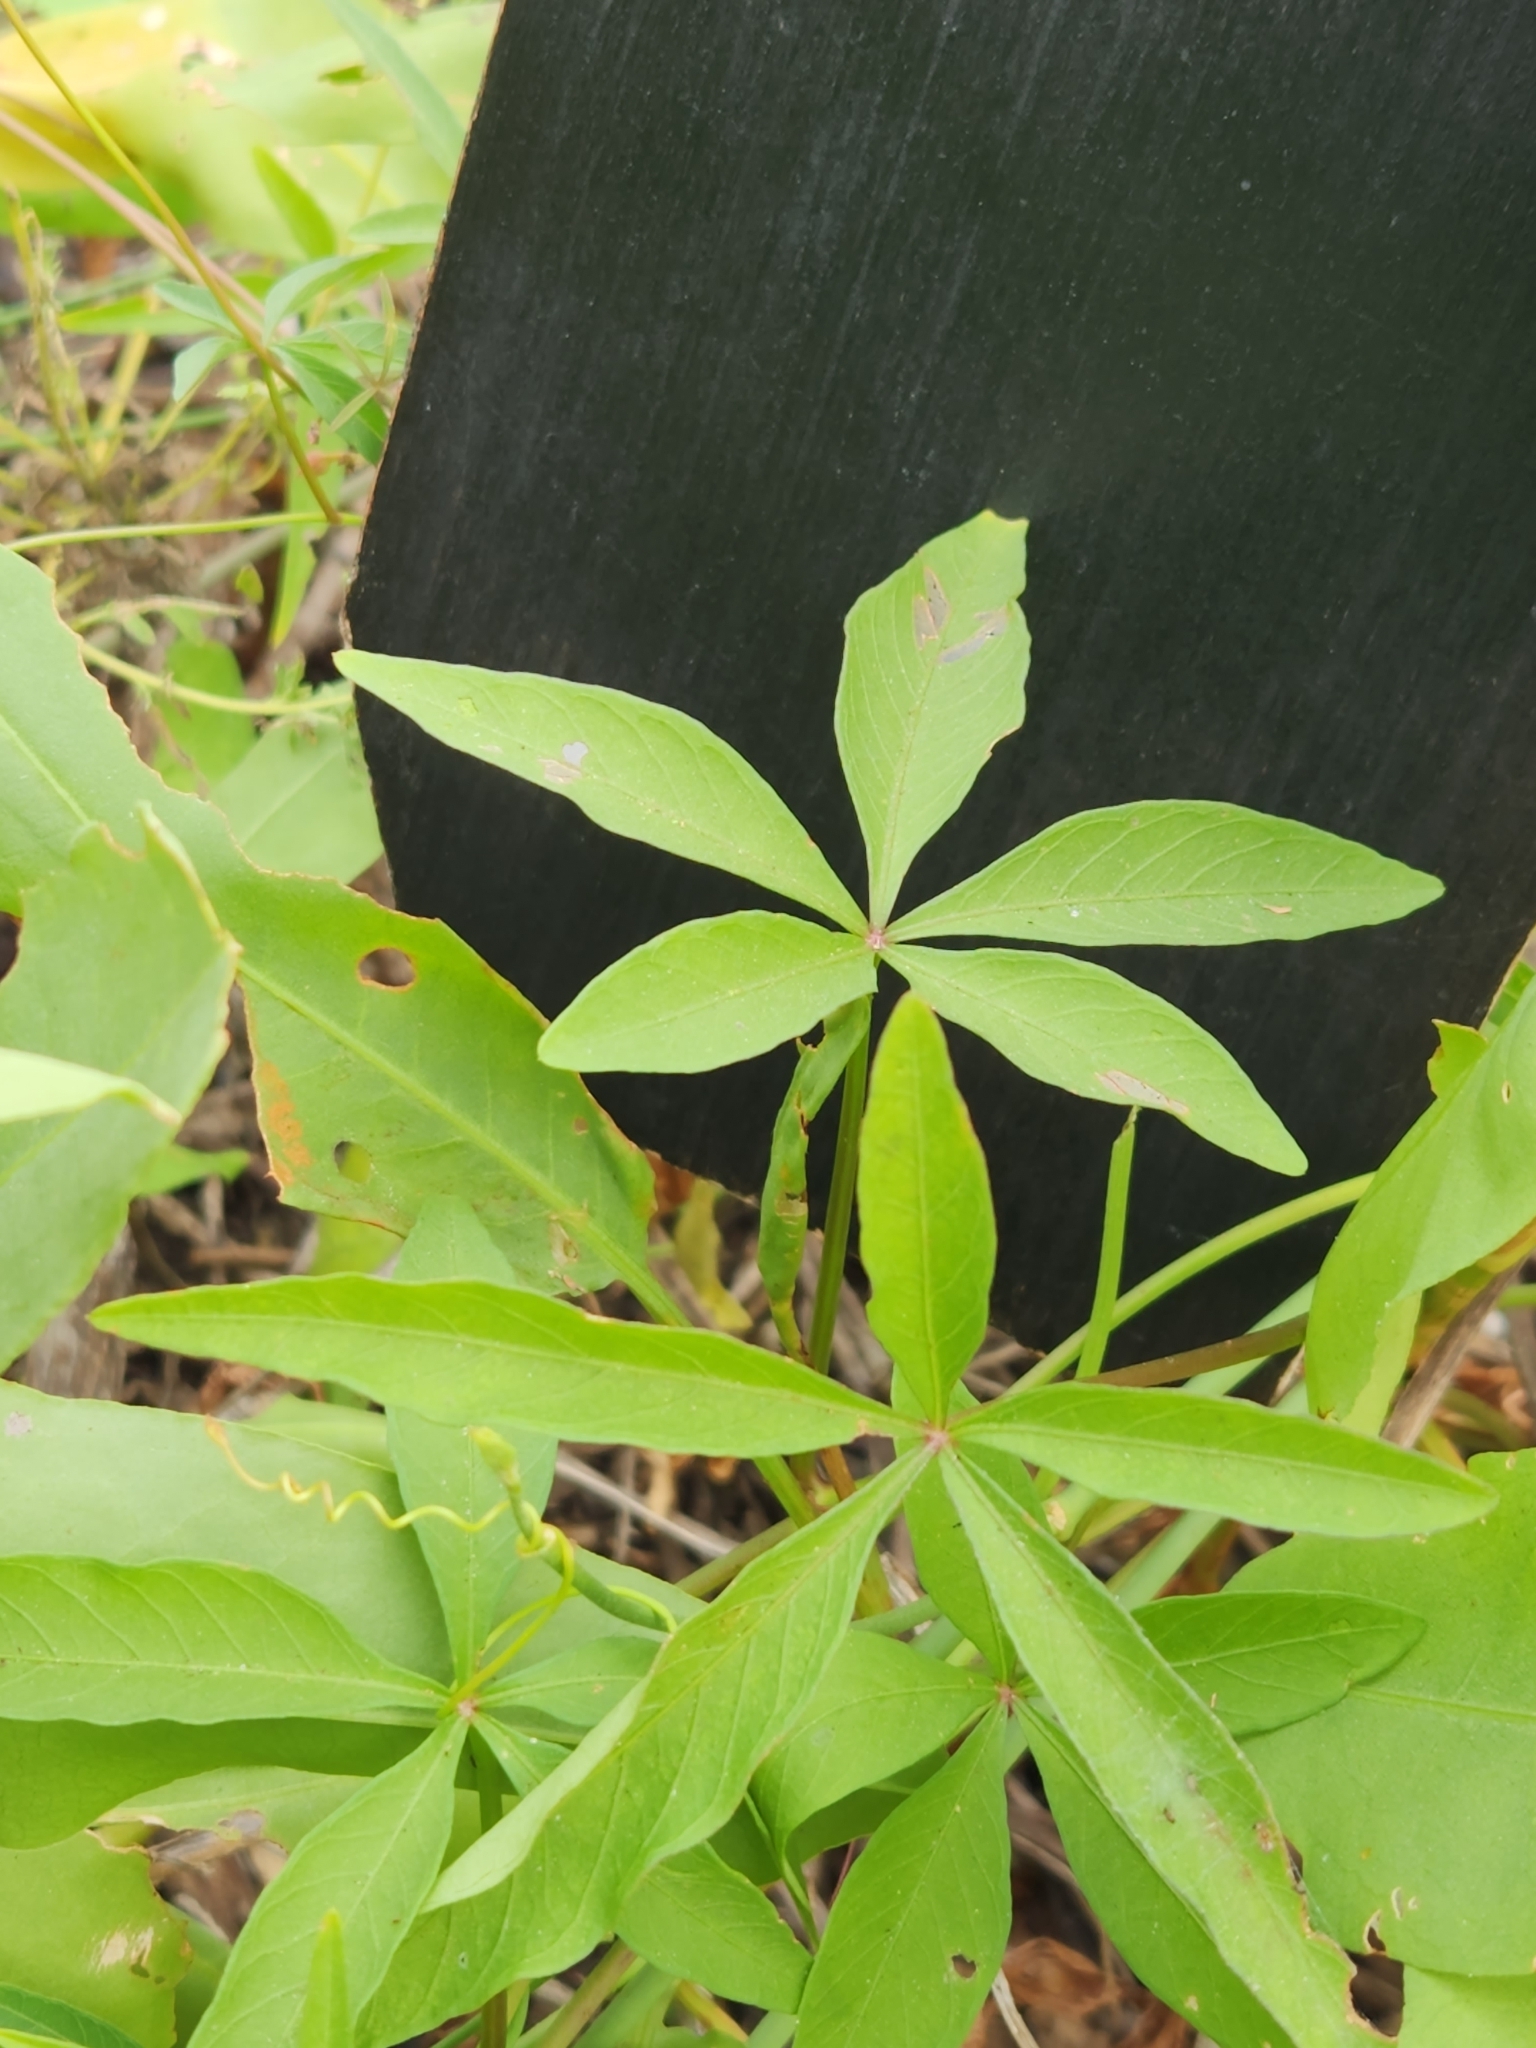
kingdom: Plantae
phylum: Tracheophyta
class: Magnoliopsida
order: Solanales
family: Convolvulaceae
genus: Ipomoea
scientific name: Ipomoea heptaphylla
